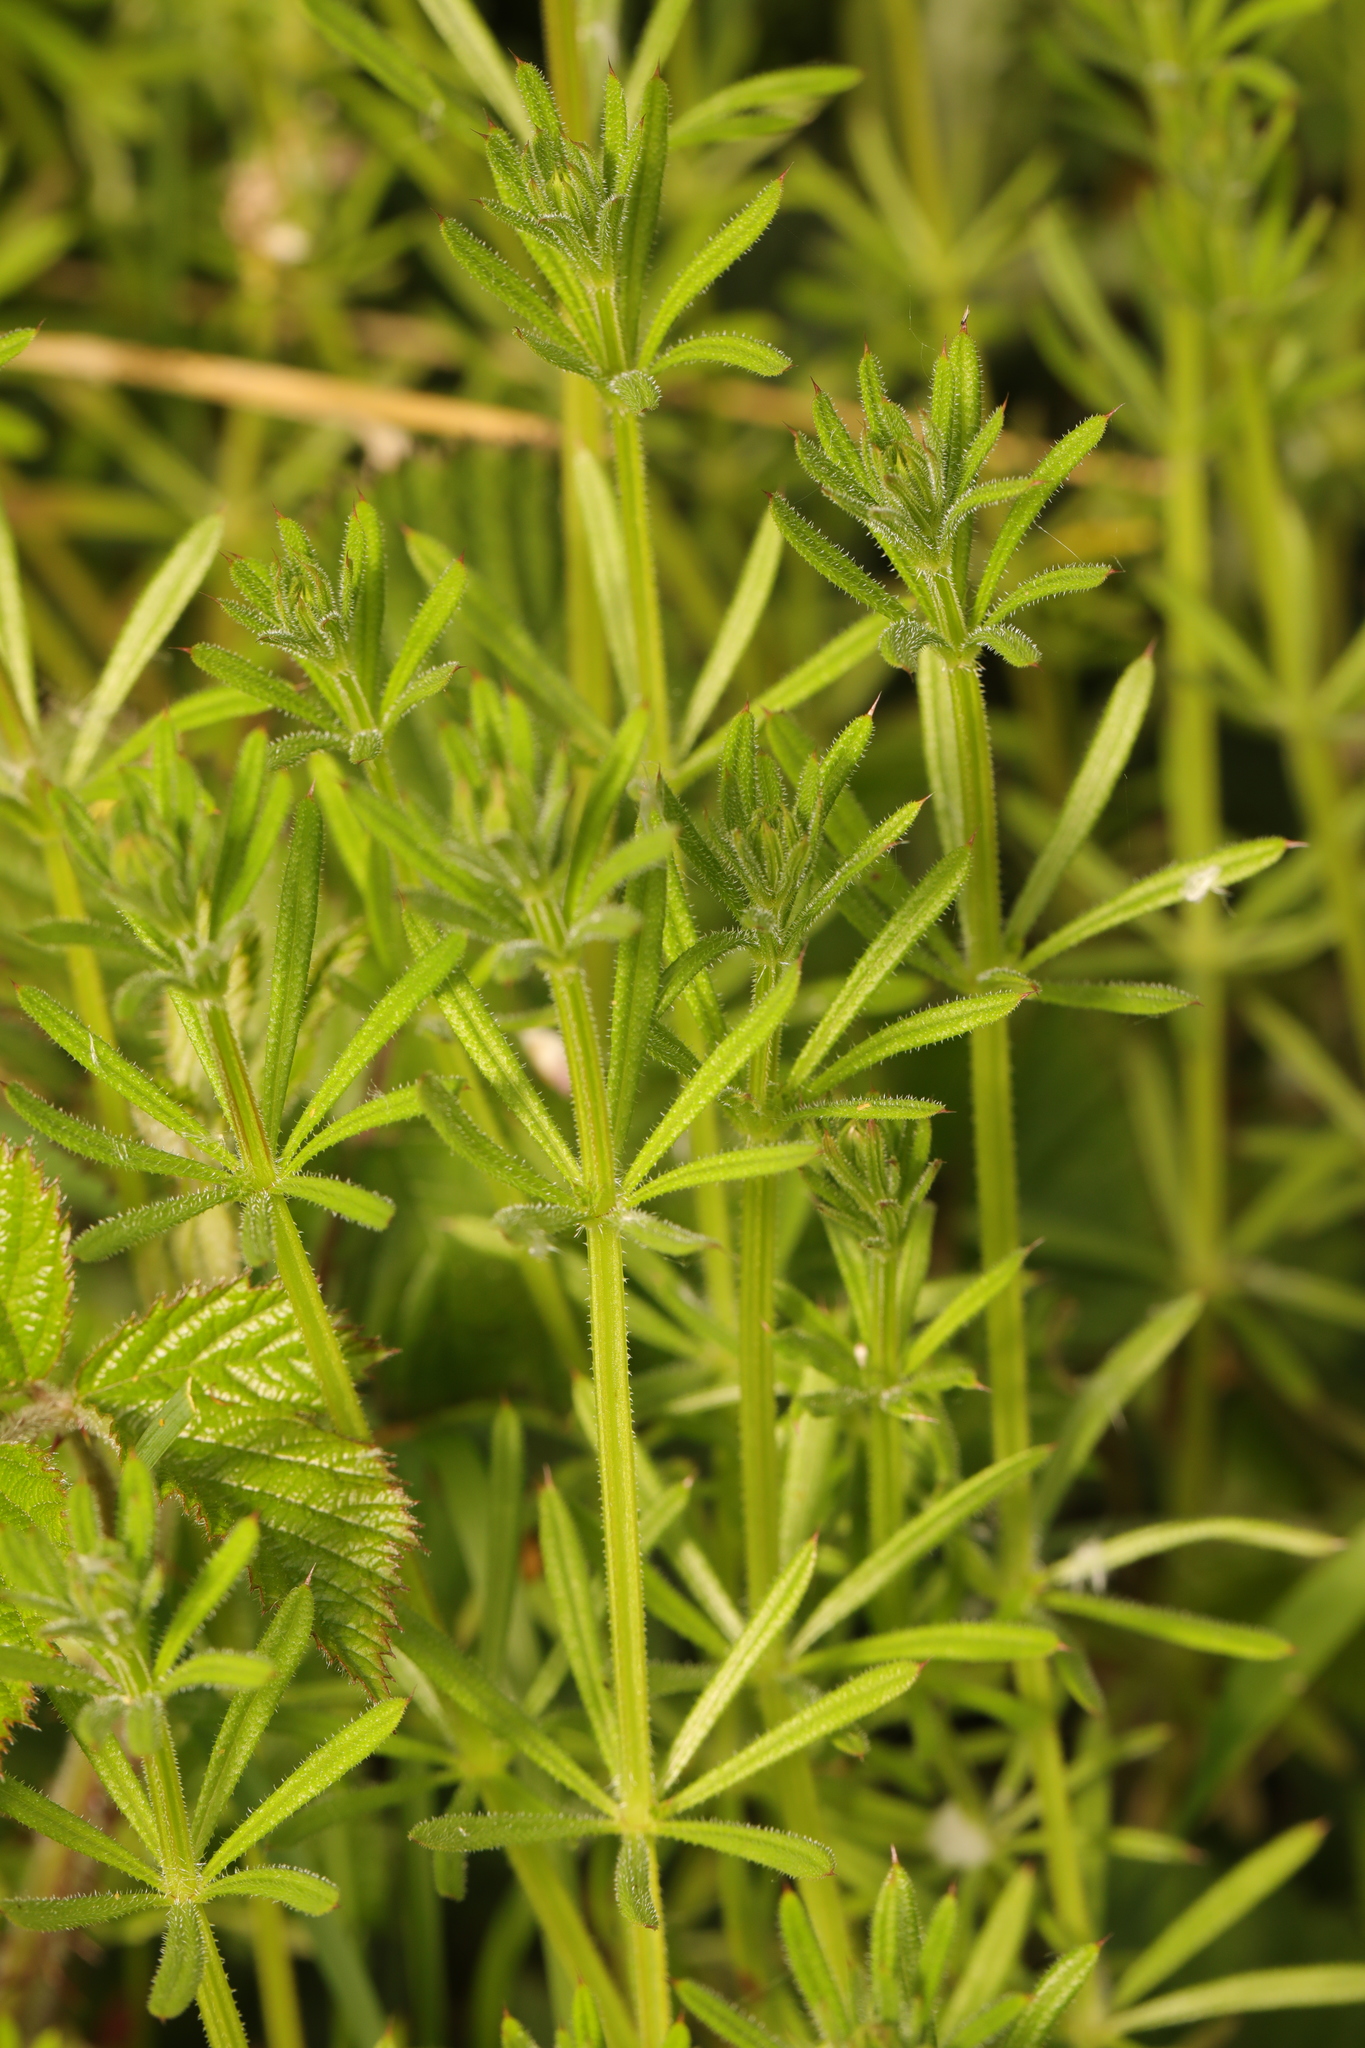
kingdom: Plantae
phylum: Tracheophyta
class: Magnoliopsida
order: Gentianales
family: Rubiaceae
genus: Galium
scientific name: Galium aparine
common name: Cleavers
